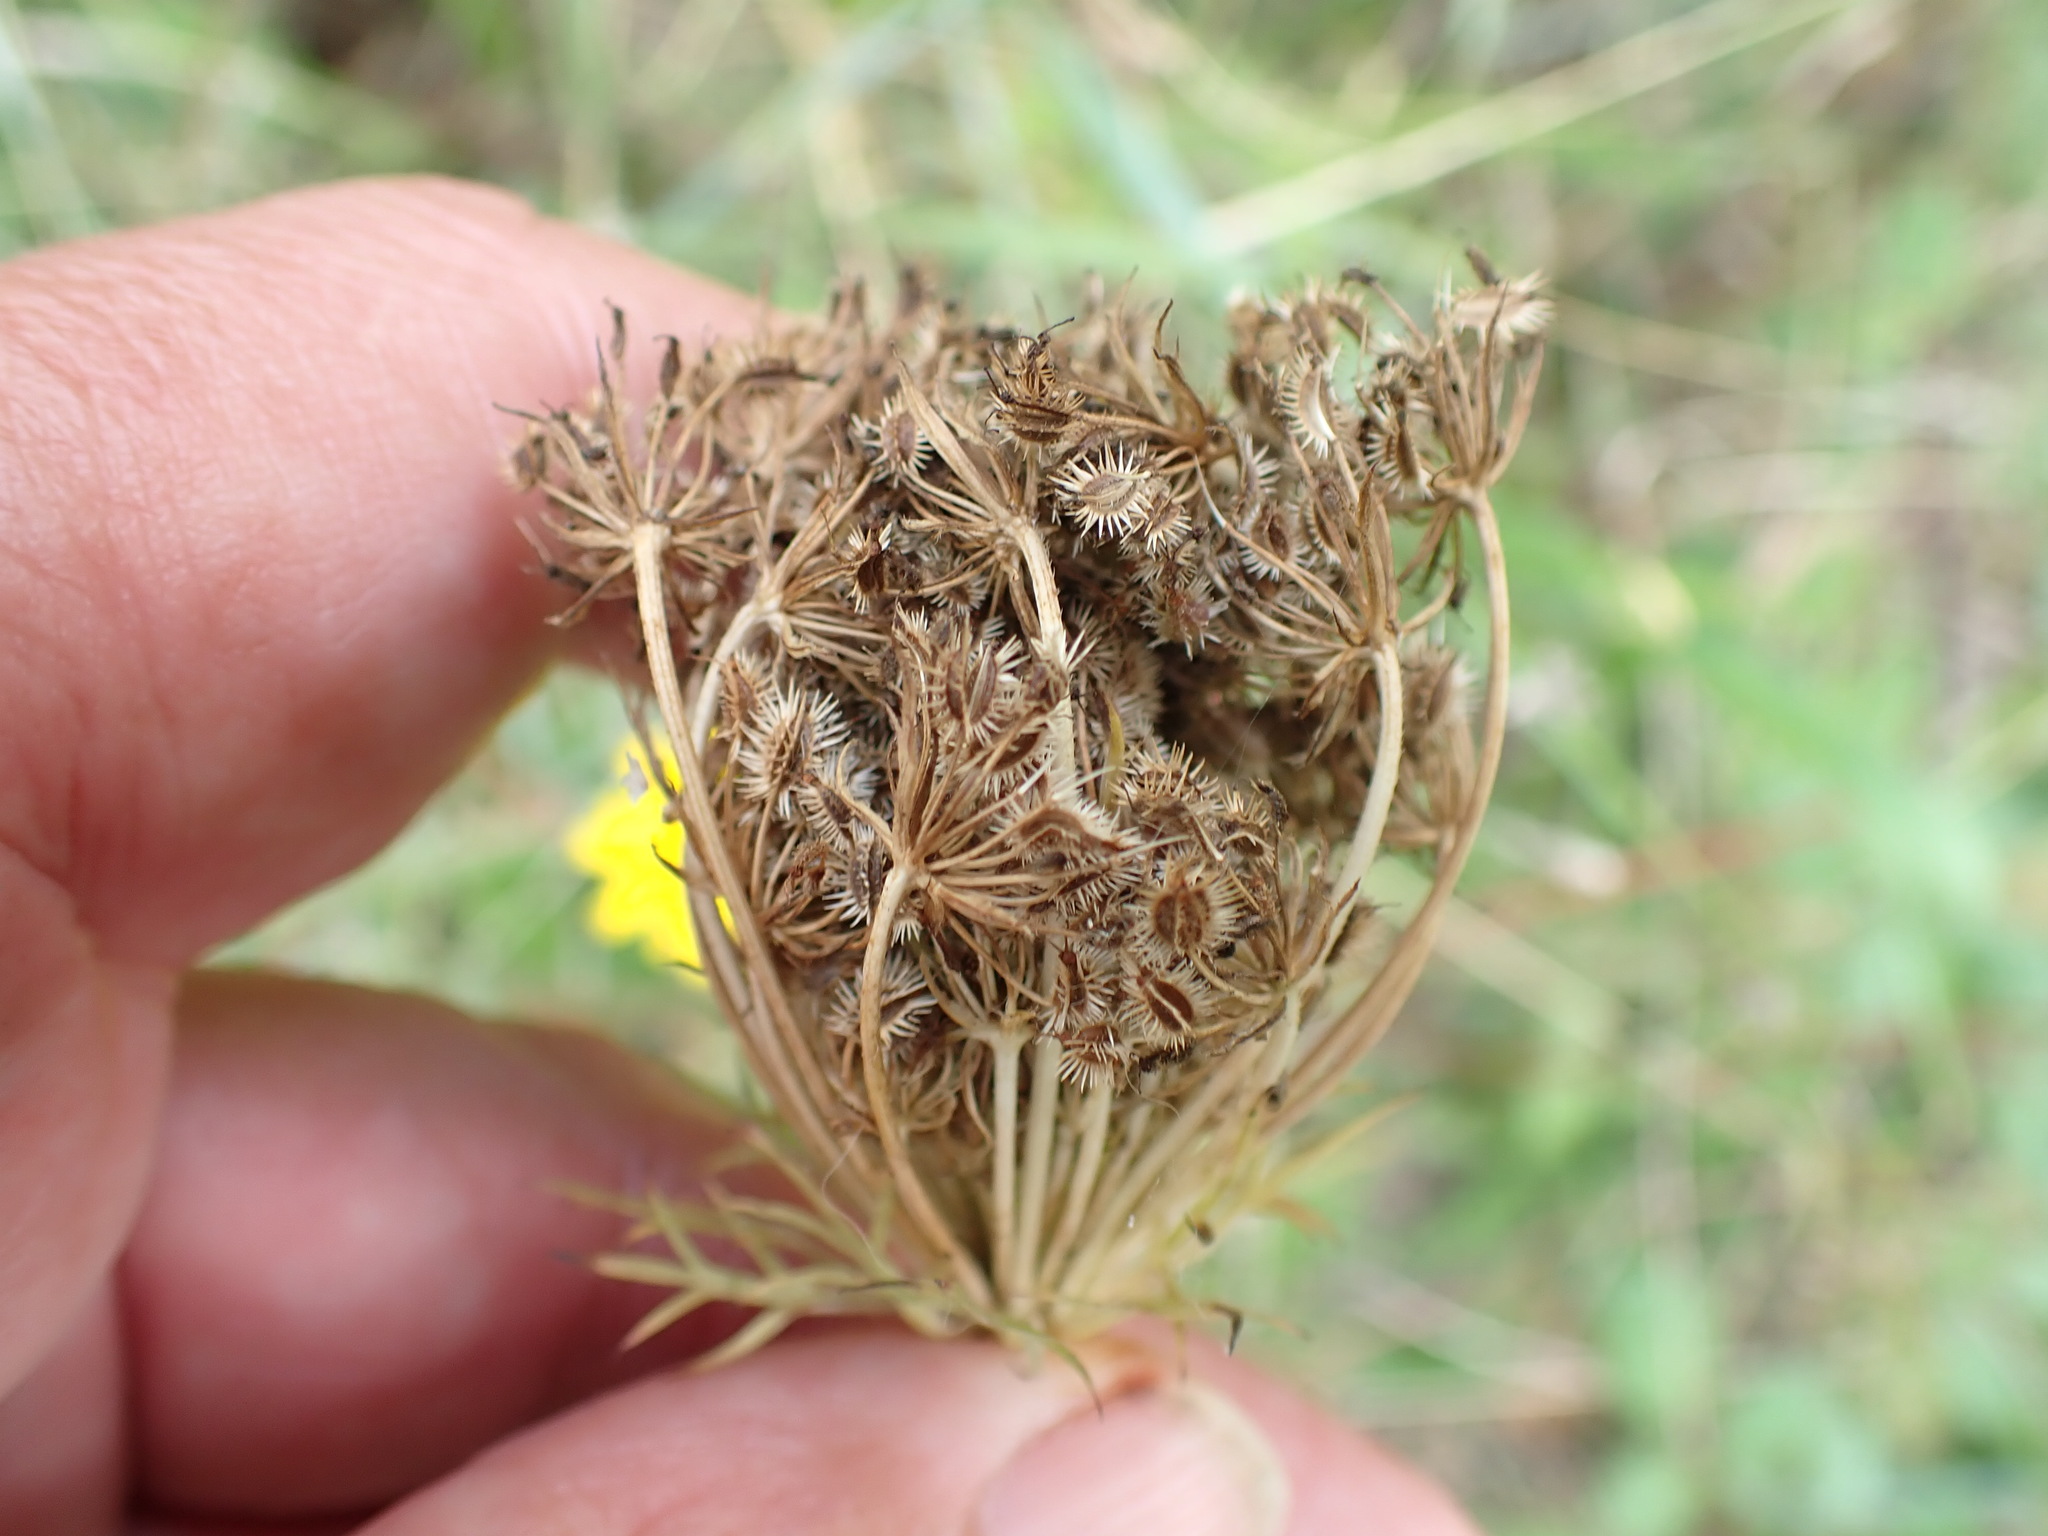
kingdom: Plantae
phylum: Tracheophyta
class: Magnoliopsida
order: Apiales
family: Apiaceae
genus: Daucus
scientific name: Daucus carota
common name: Wild carrot
